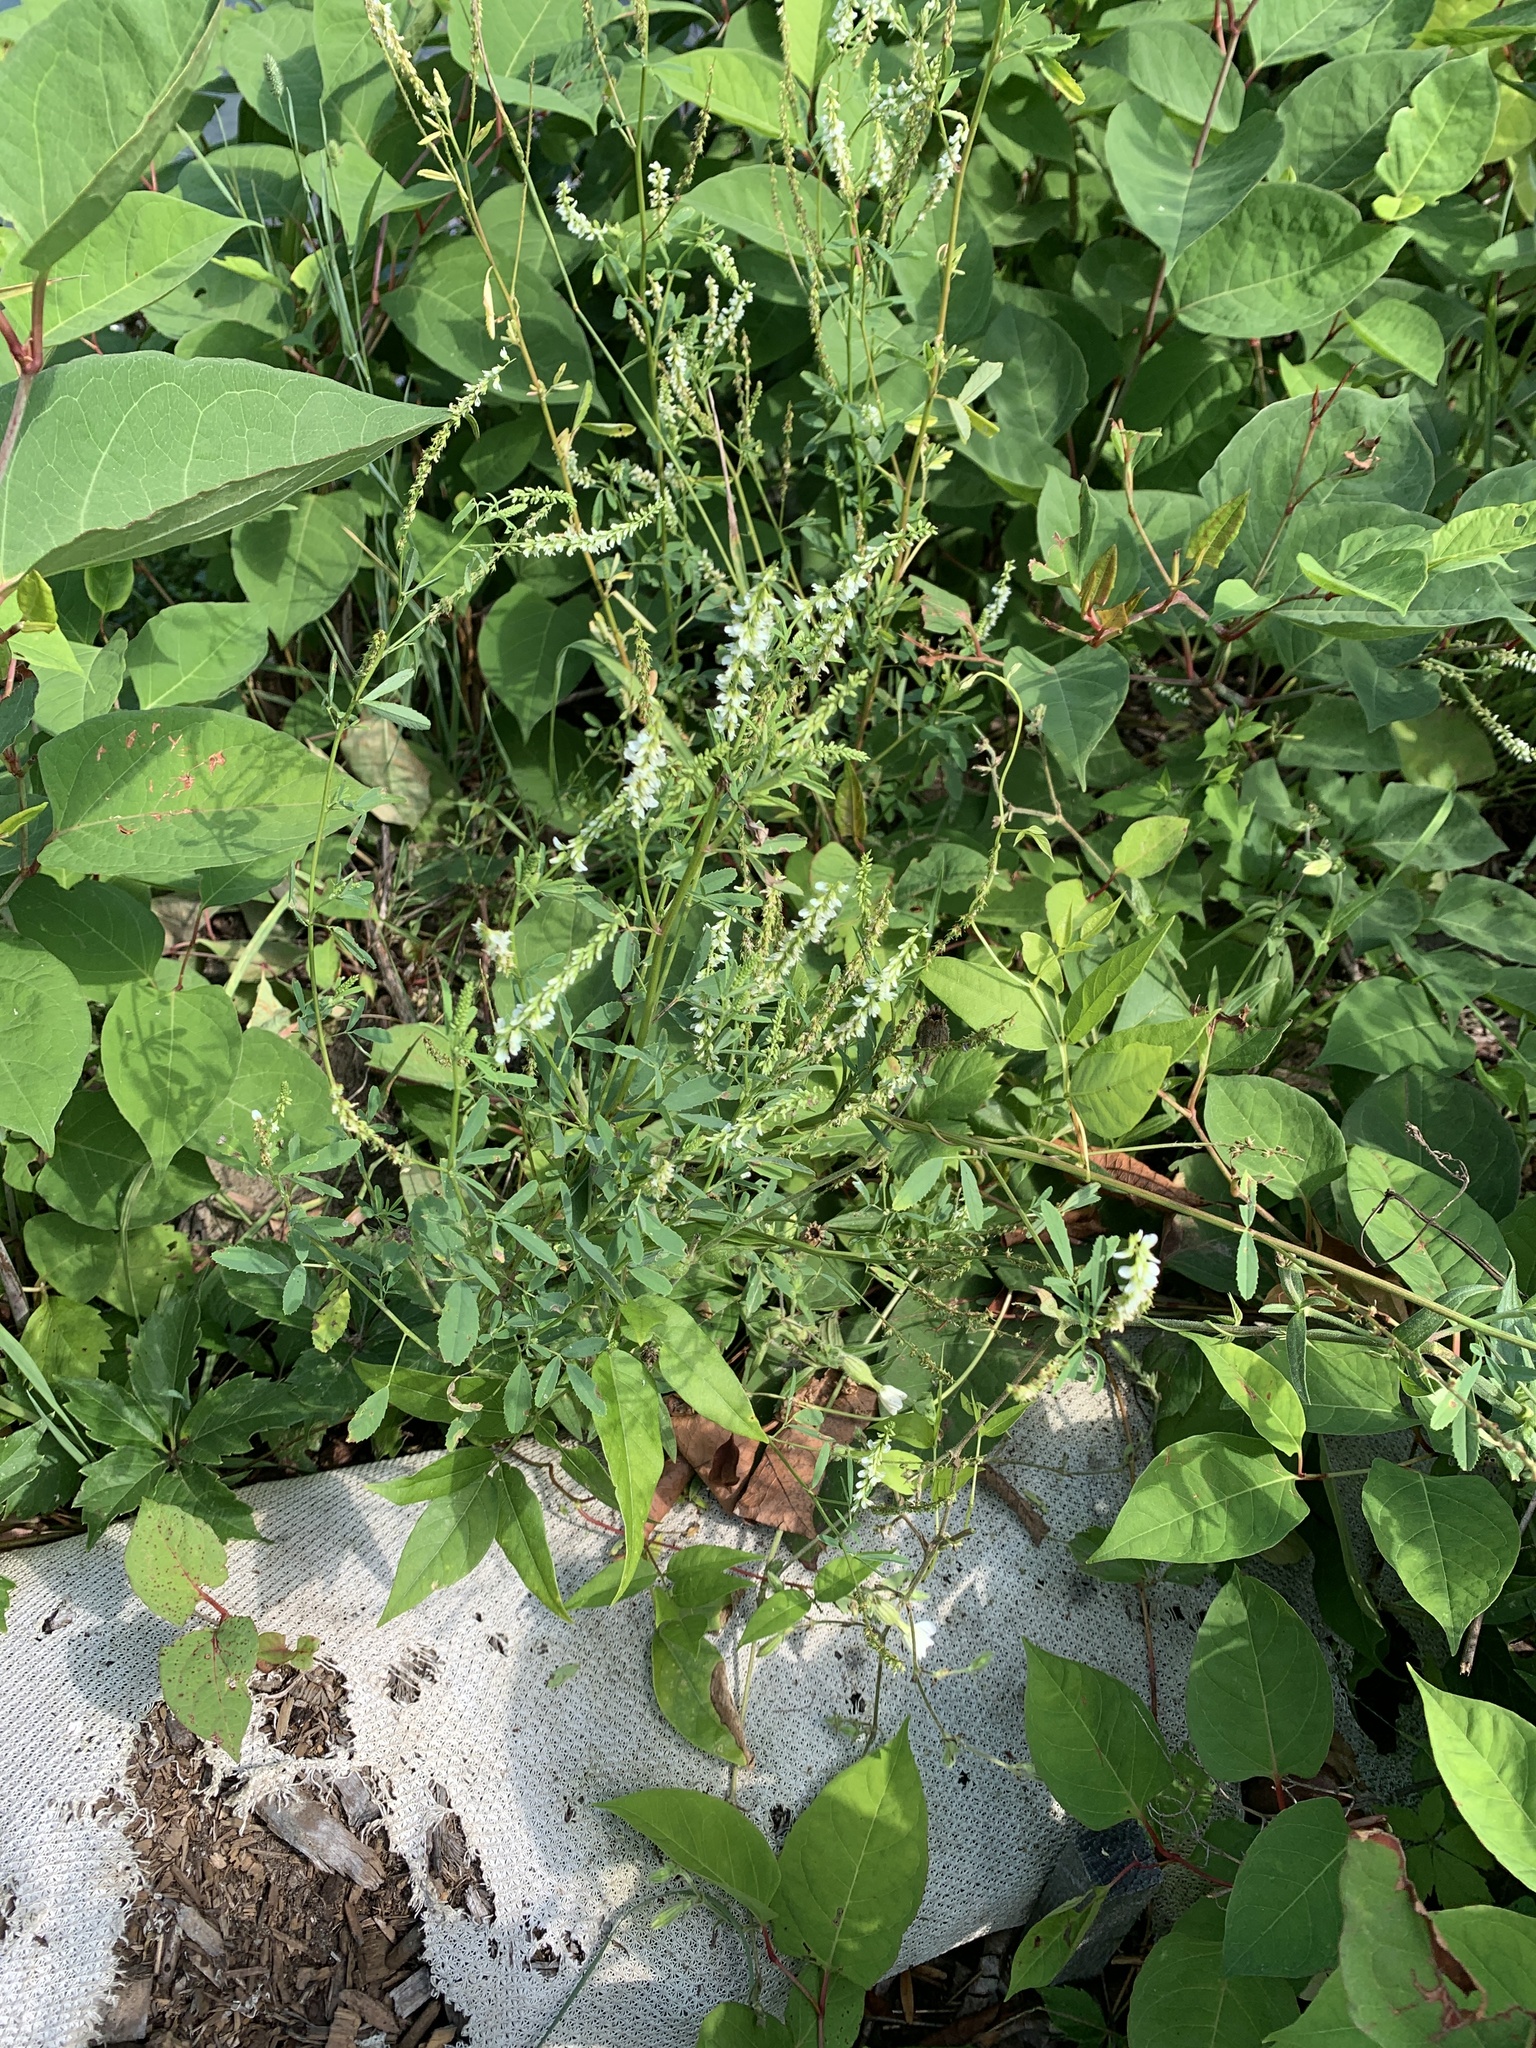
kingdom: Plantae
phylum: Tracheophyta
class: Magnoliopsida
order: Fabales
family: Fabaceae
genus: Melilotus
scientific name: Melilotus albus
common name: White melilot
